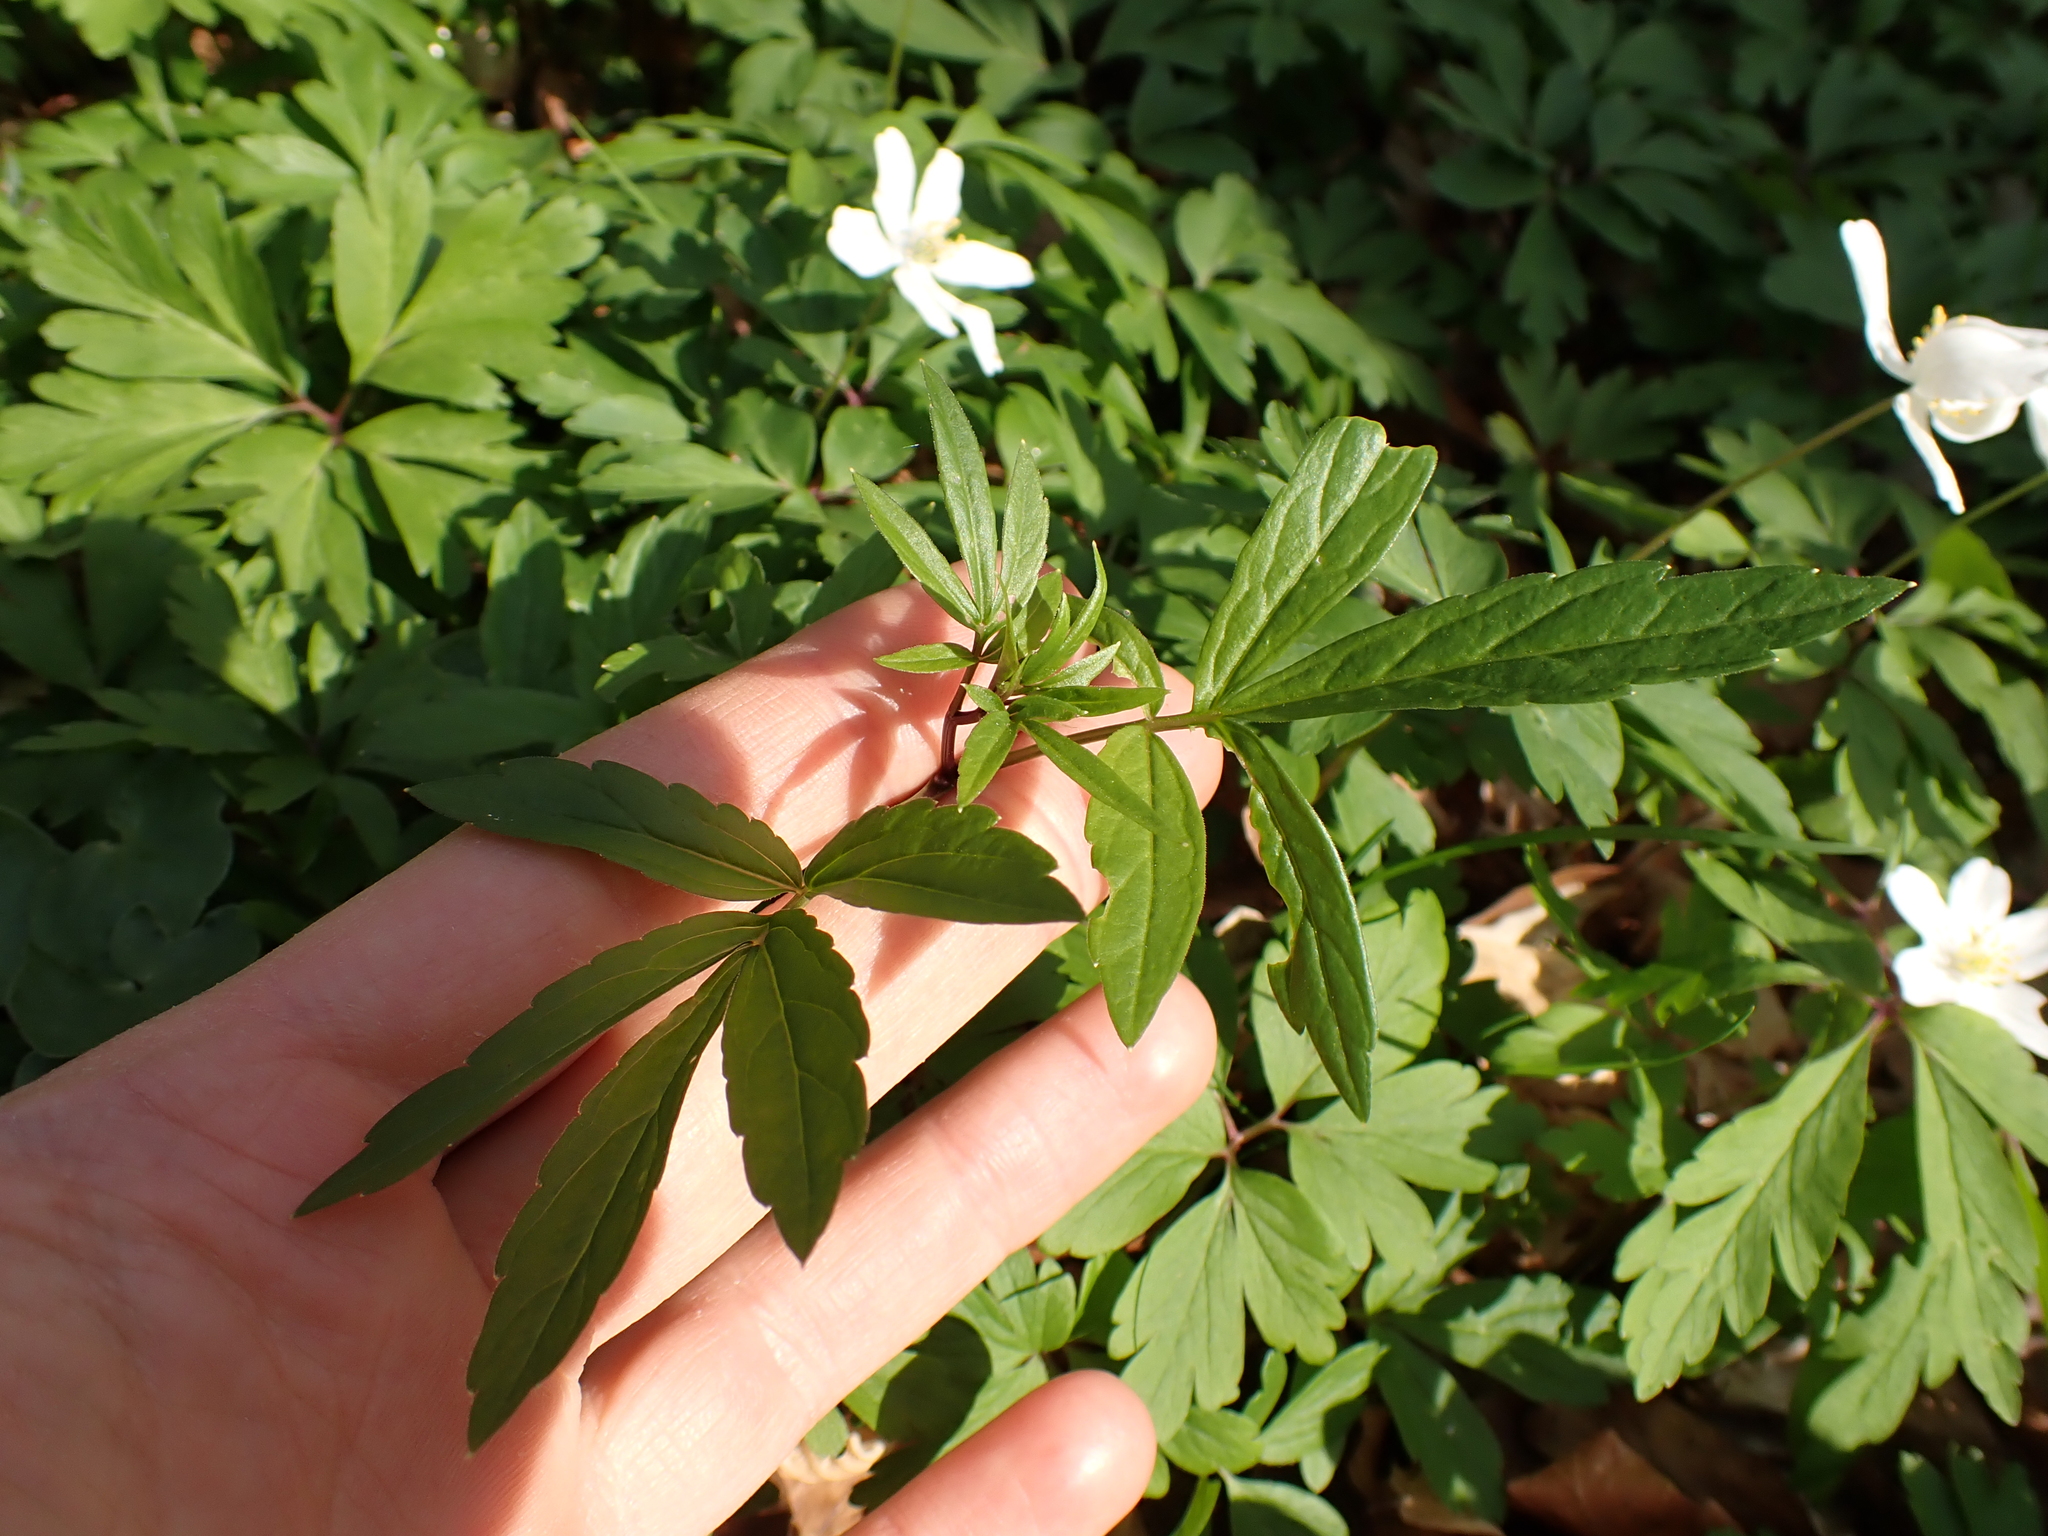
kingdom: Plantae
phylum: Tracheophyta
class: Magnoliopsida
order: Brassicales
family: Brassicaceae
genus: Cardamine
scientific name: Cardamine bulbifera
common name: Coralroot bittercress
